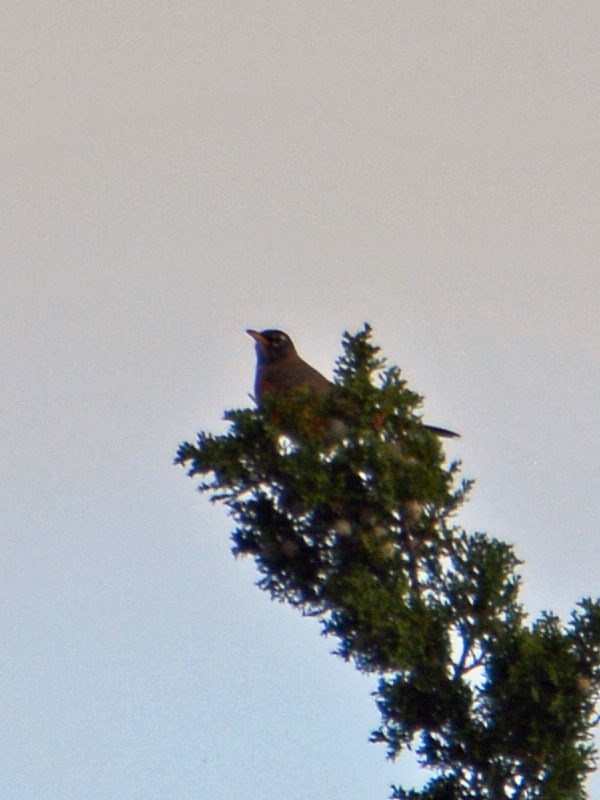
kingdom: Animalia
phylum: Chordata
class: Aves
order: Passeriformes
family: Turdidae
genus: Turdus
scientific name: Turdus migratorius
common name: American robin
